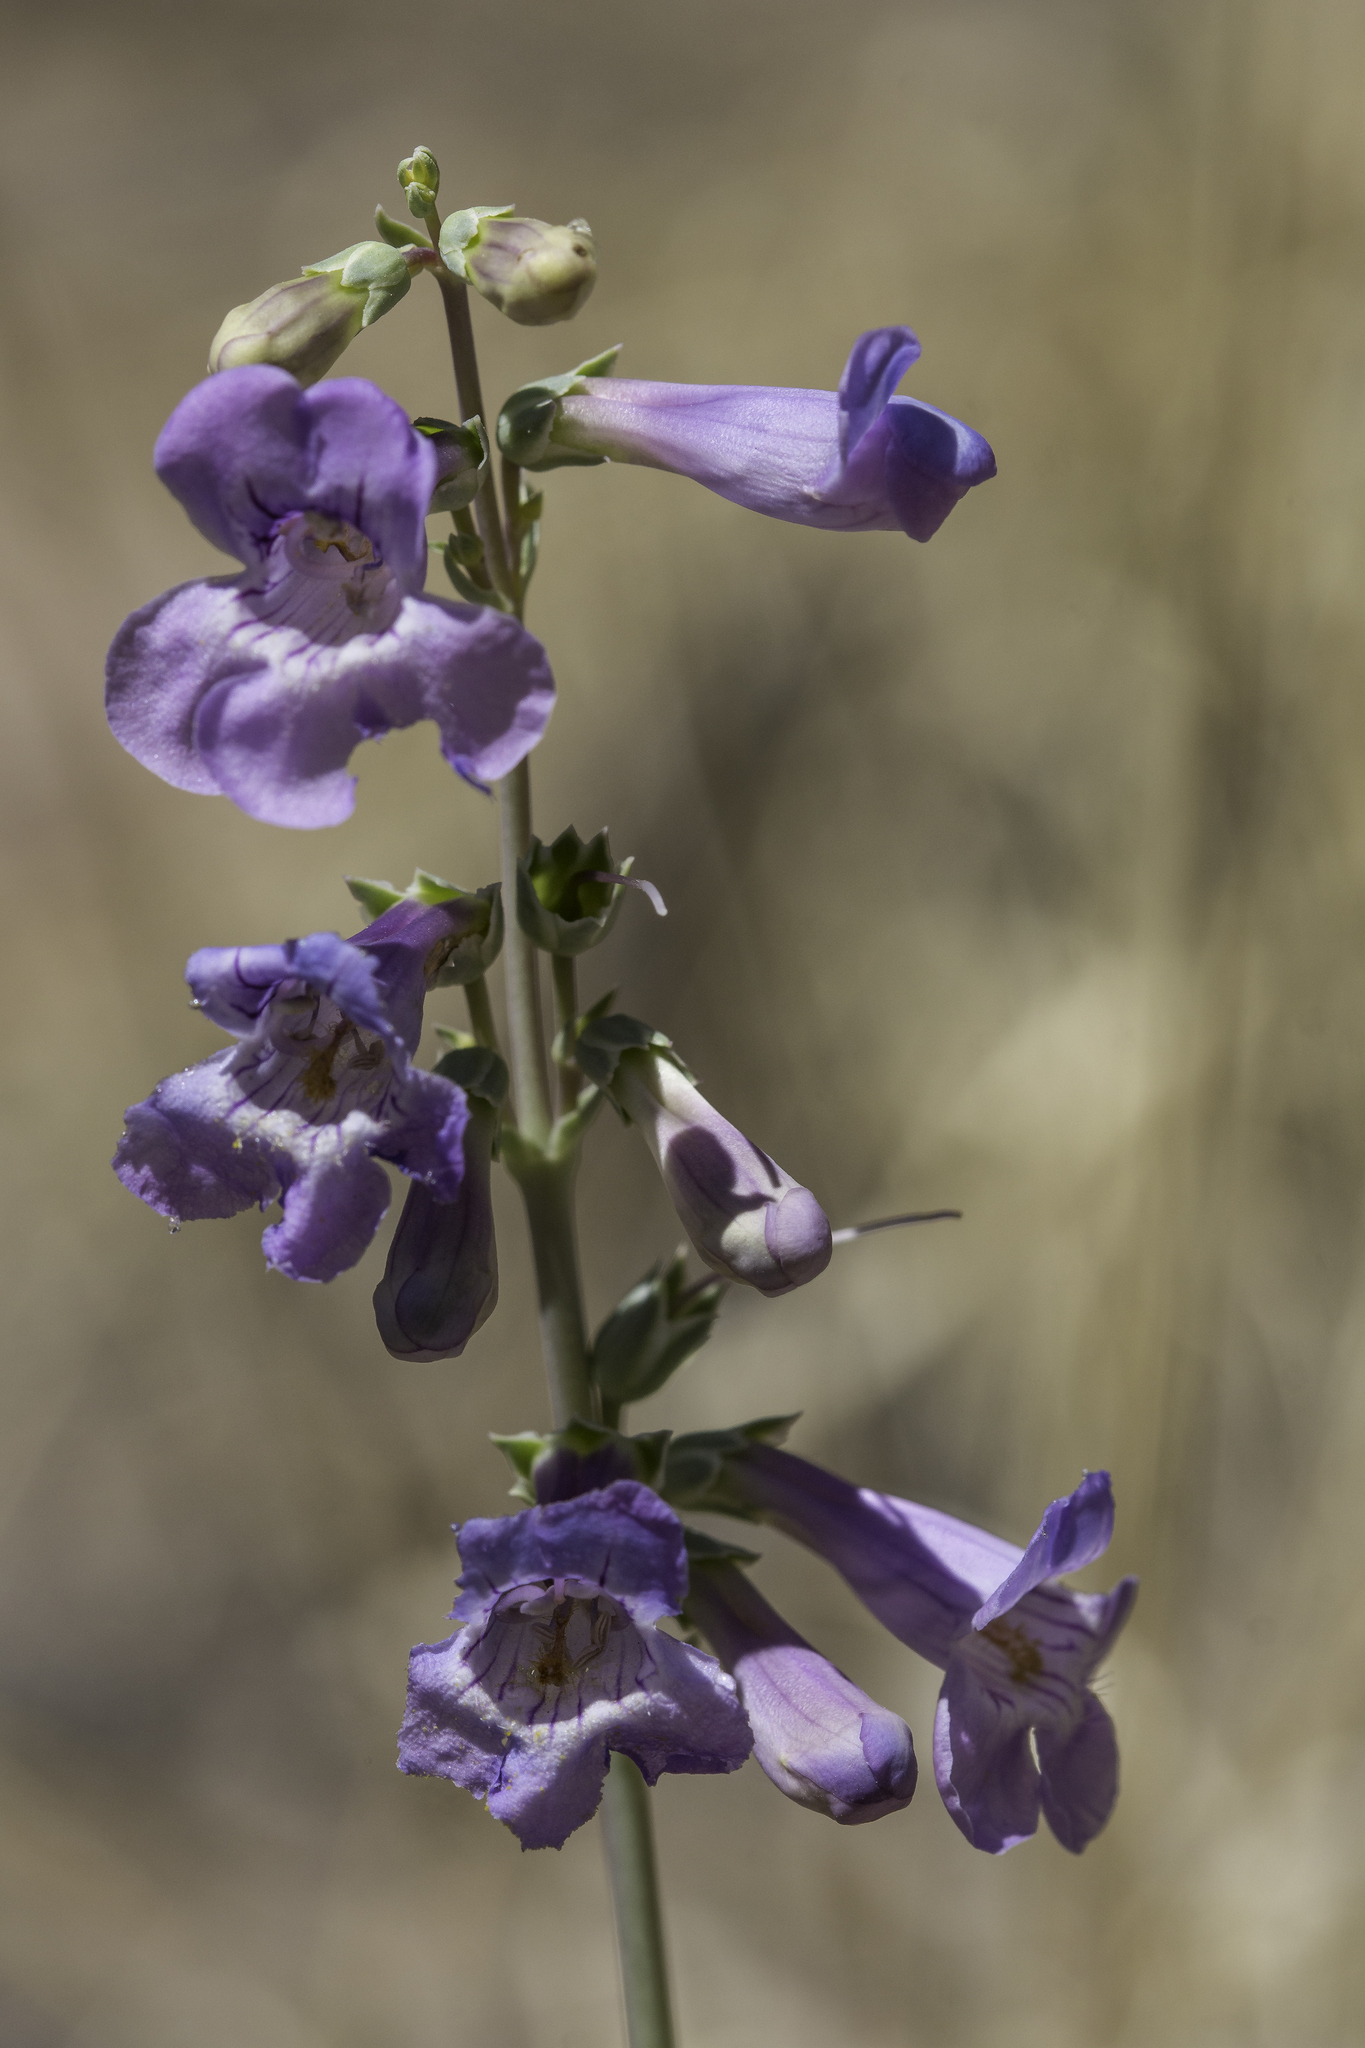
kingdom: Plantae
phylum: Tracheophyta
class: Magnoliopsida
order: Lamiales
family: Plantaginaceae
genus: Penstemon
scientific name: Penstemon secundiflorus
